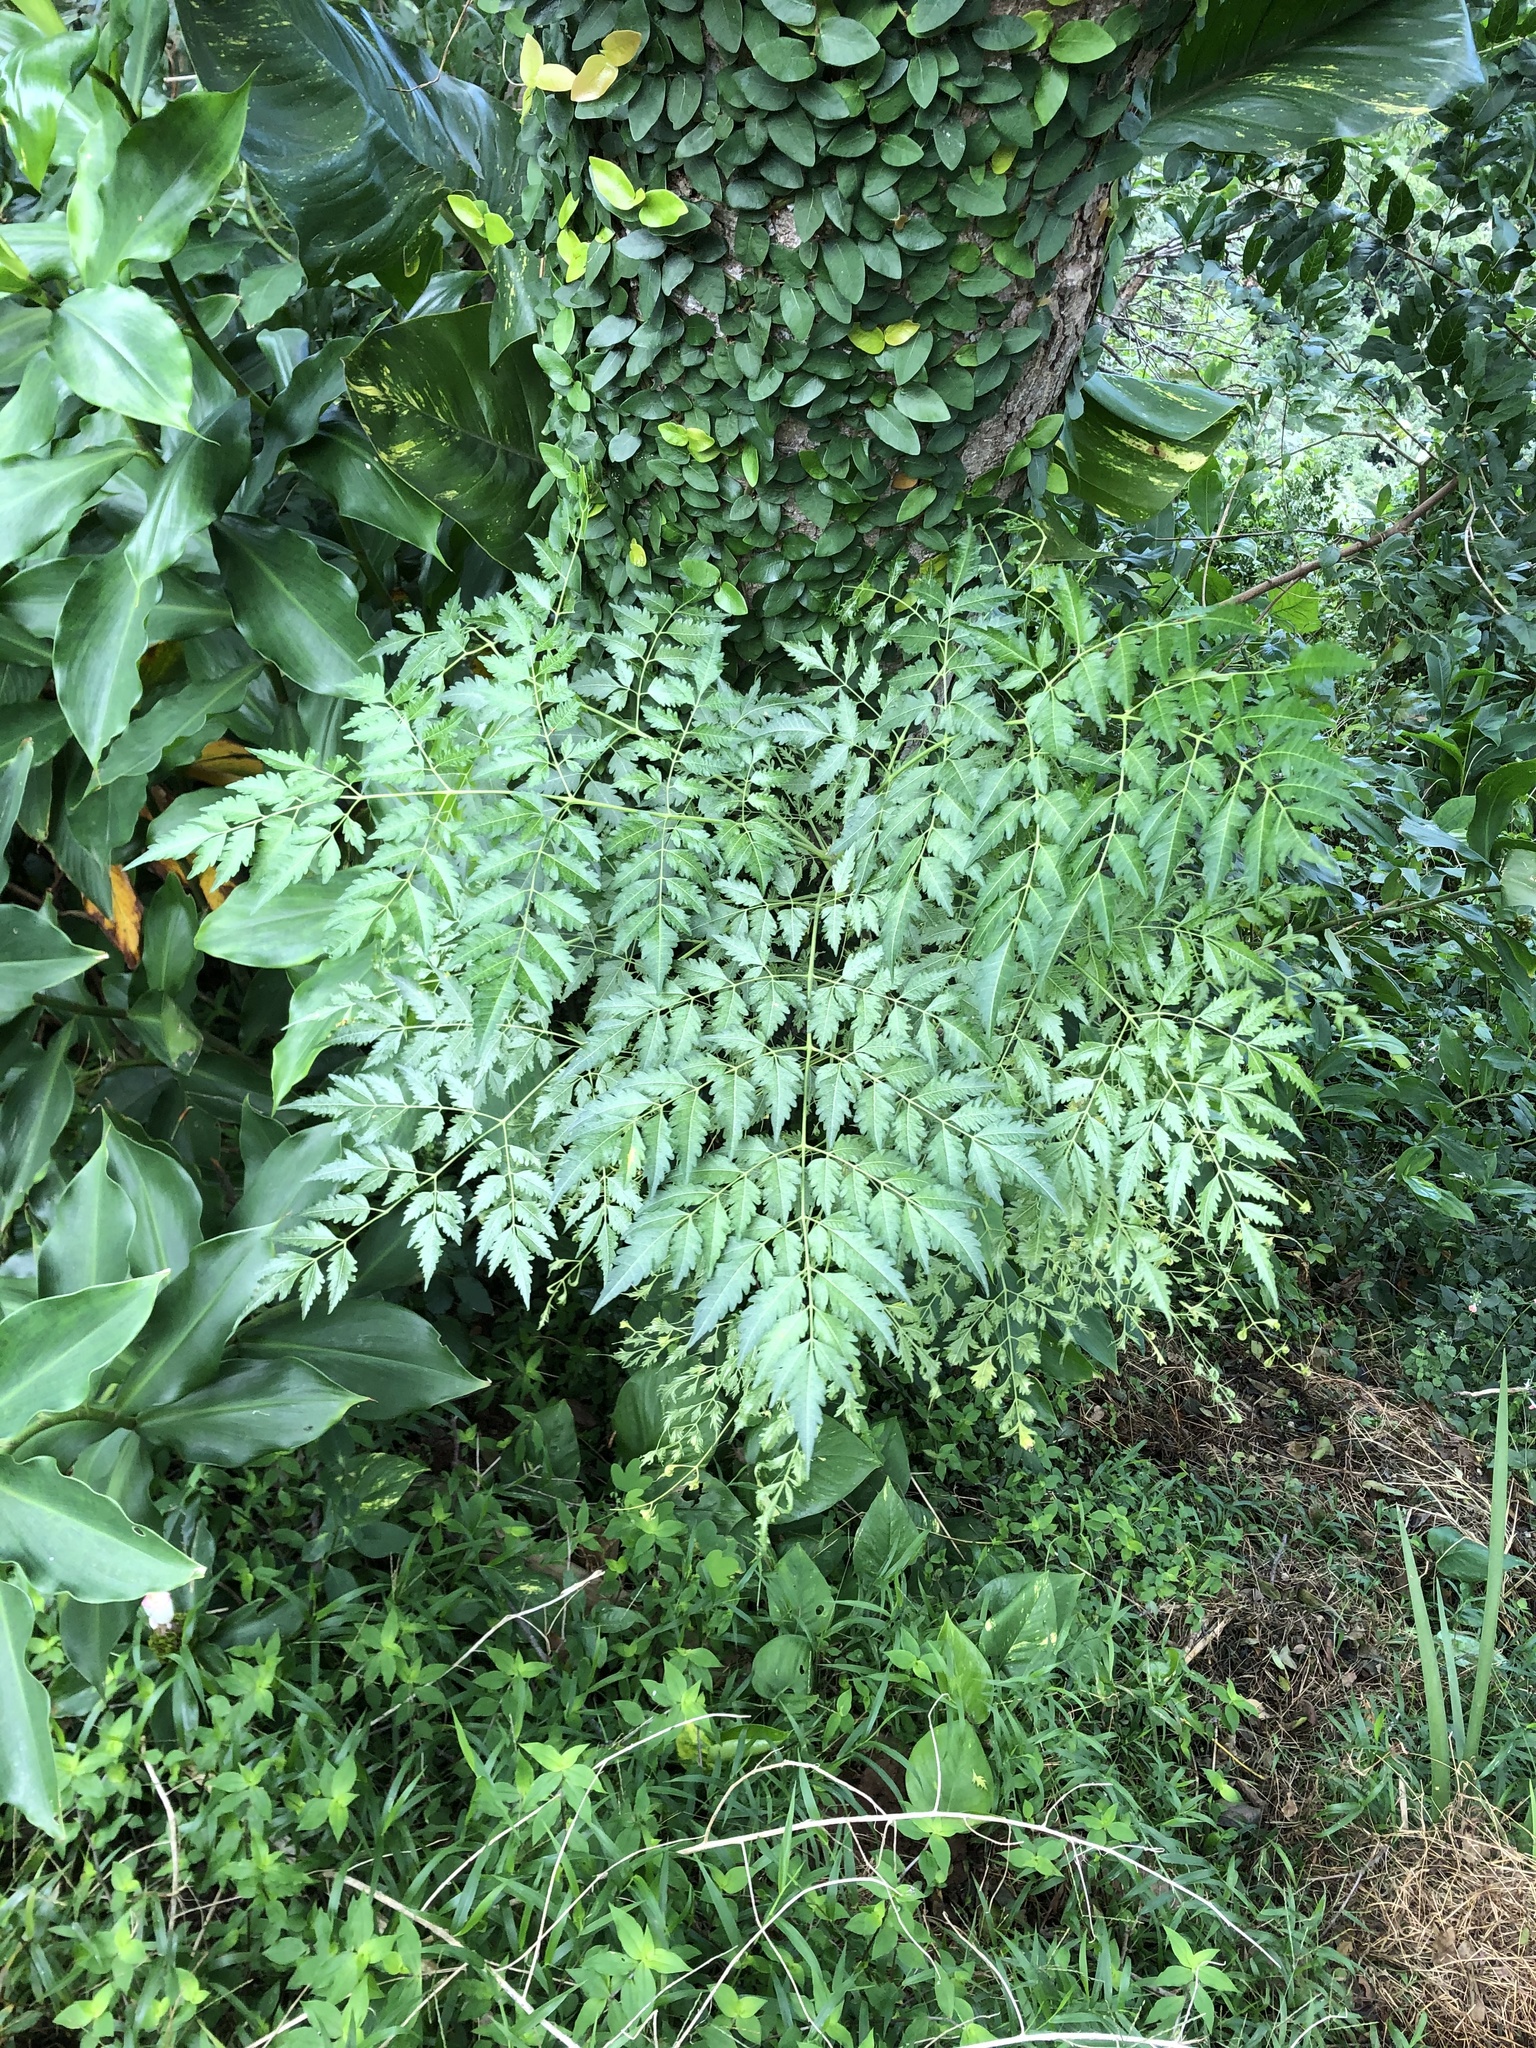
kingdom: Plantae
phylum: Tracheophyta
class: Magnoliopsida
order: Sapindales
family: Meliaceae
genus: Melia
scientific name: Melia azedarach
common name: Chinaberrytree
